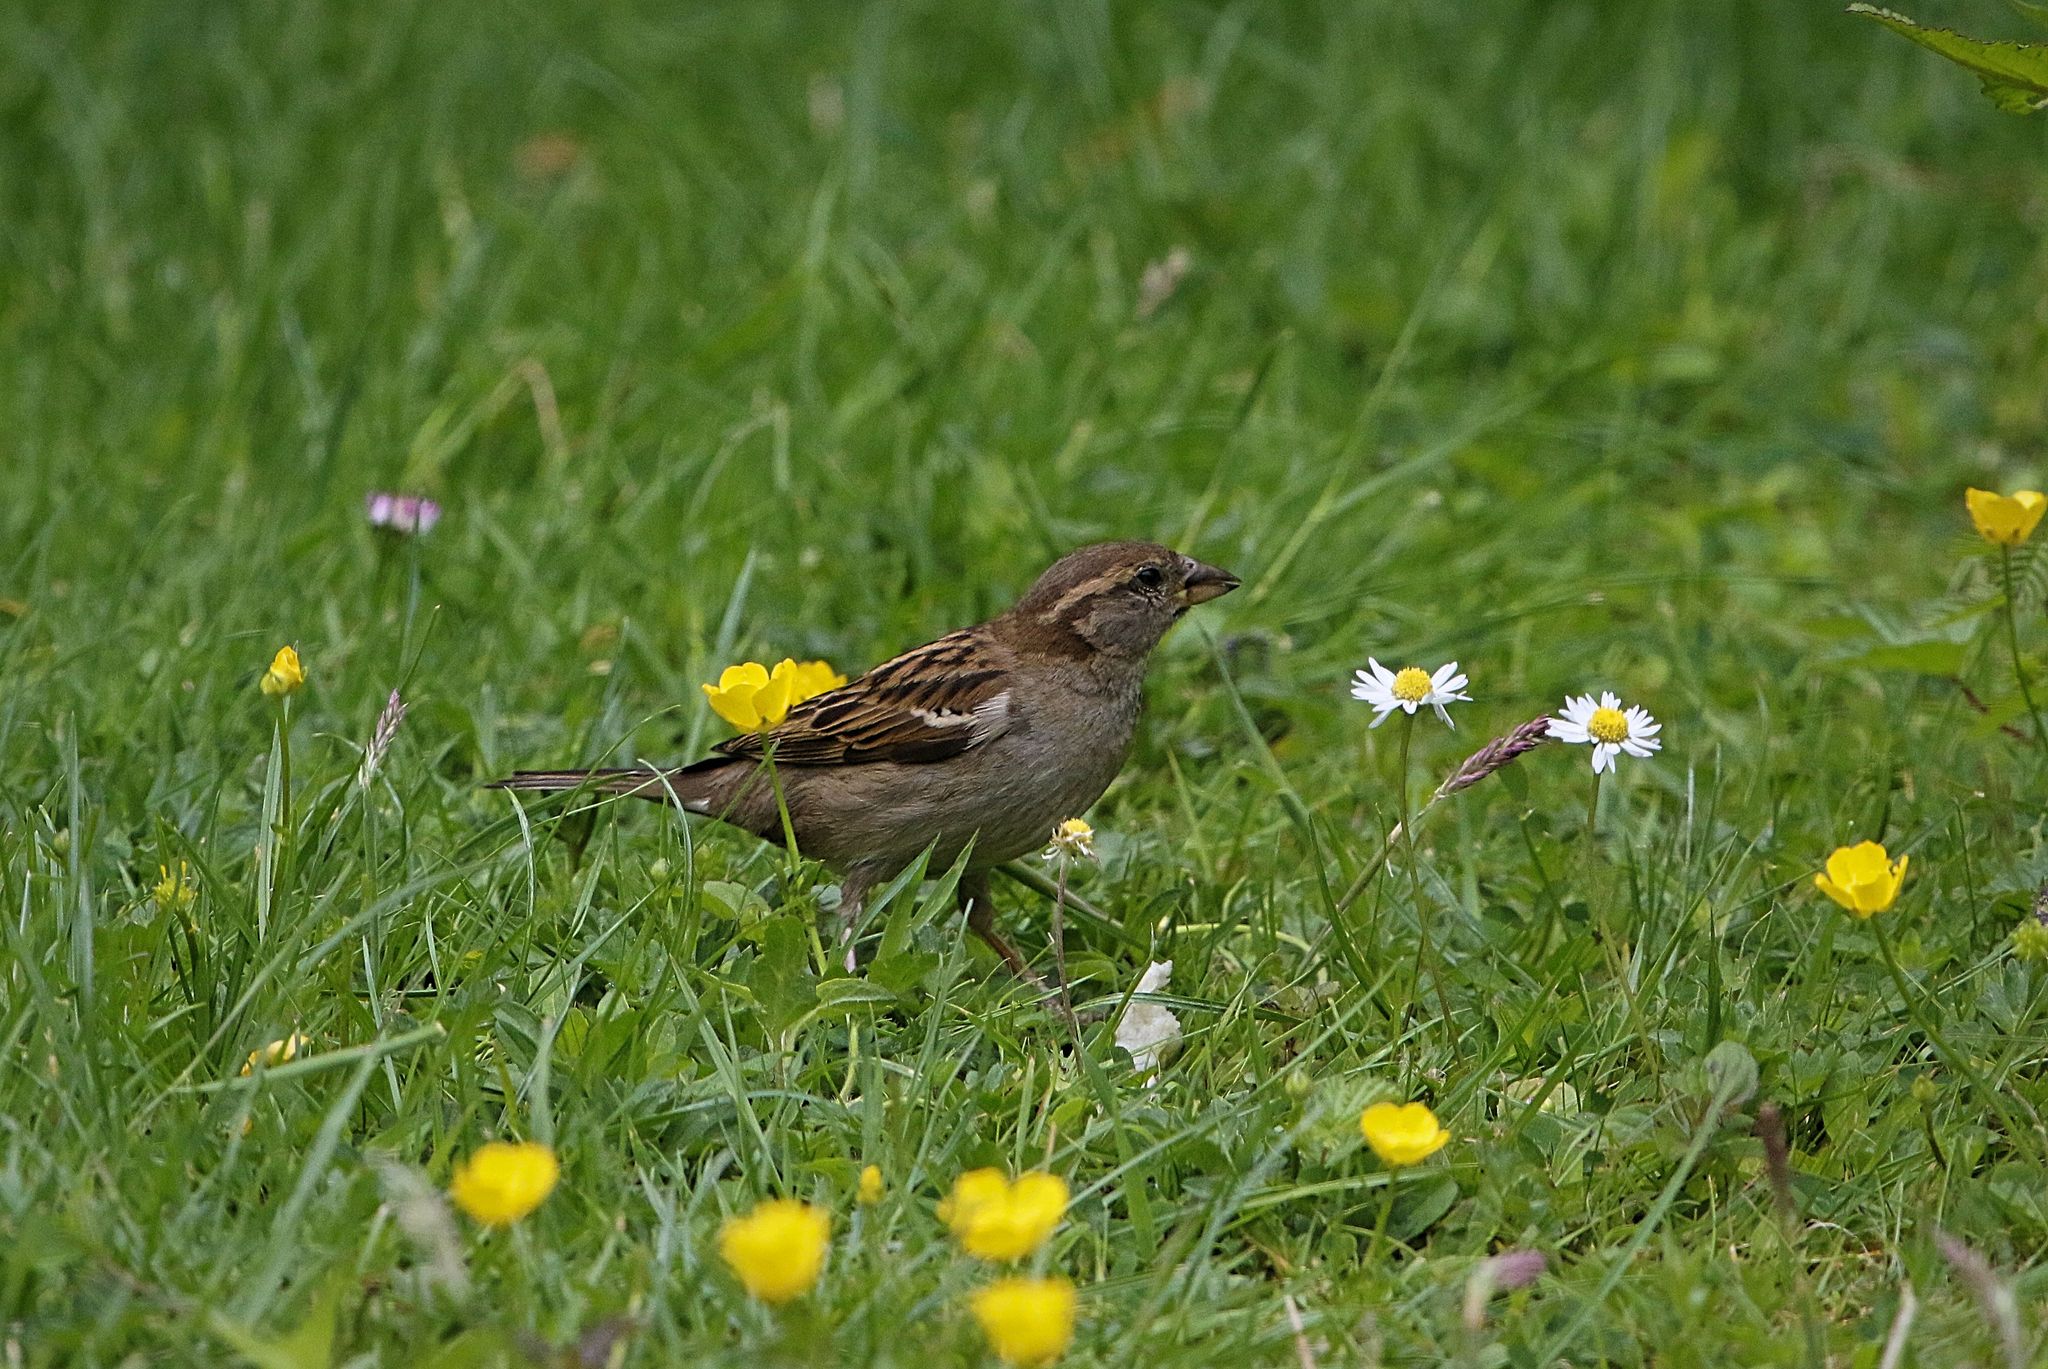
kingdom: Animalia
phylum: Chordata
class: Aves
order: Passeriformes
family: Passeridae
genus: Passer
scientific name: Passer domesticus
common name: House sparrow
